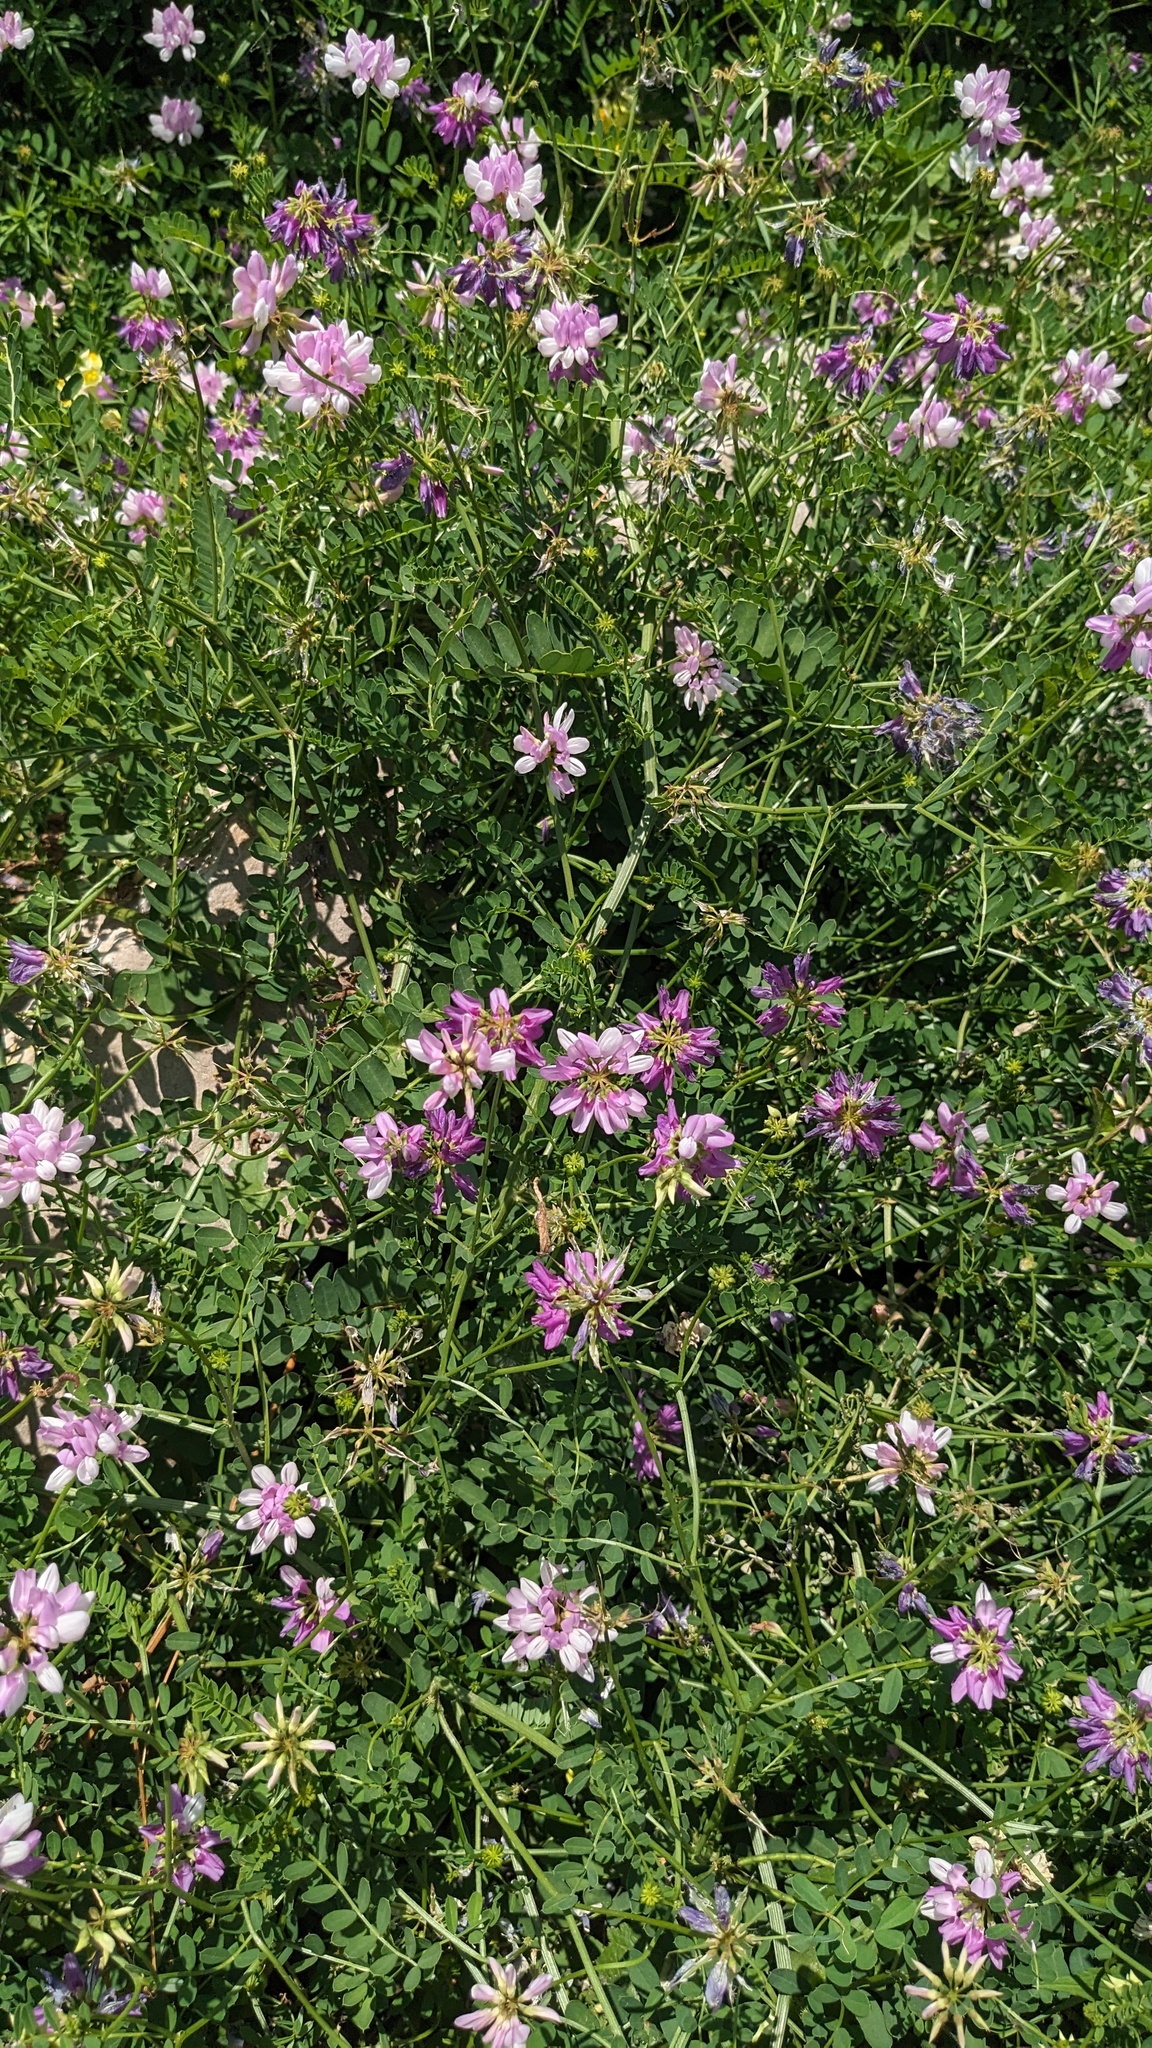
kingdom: Plantae
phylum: Tracheophyta
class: Magnoliopsida
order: Fabales
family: Fabaceae
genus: Coronilla
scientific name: Coronilla varia
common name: Crownvetch
